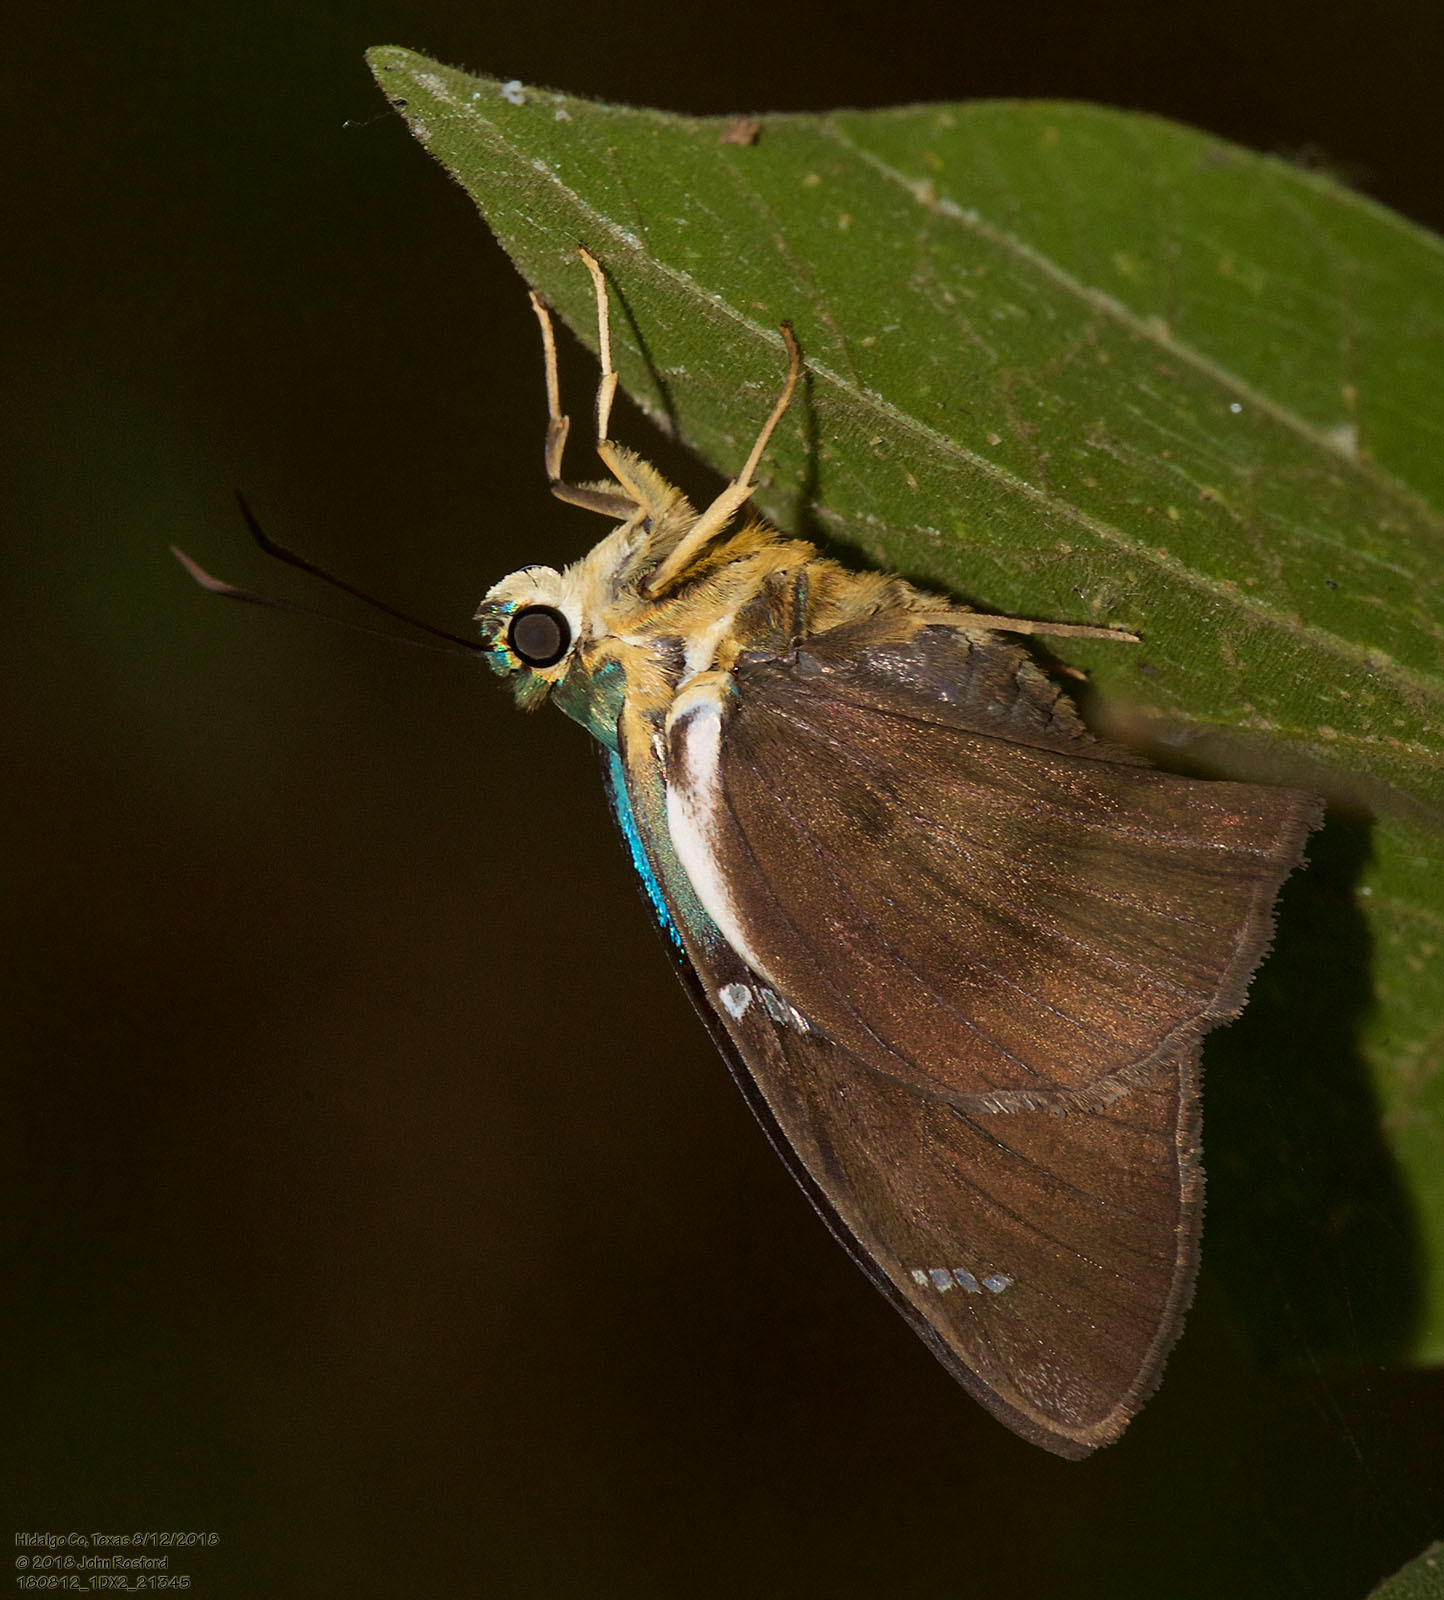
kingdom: Animalia
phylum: Arthropoda
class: Insecta
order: Lepidoptera
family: Hesperiidae
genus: Astraptes
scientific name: Astraptes fulgerator
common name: Two-barred flasher
